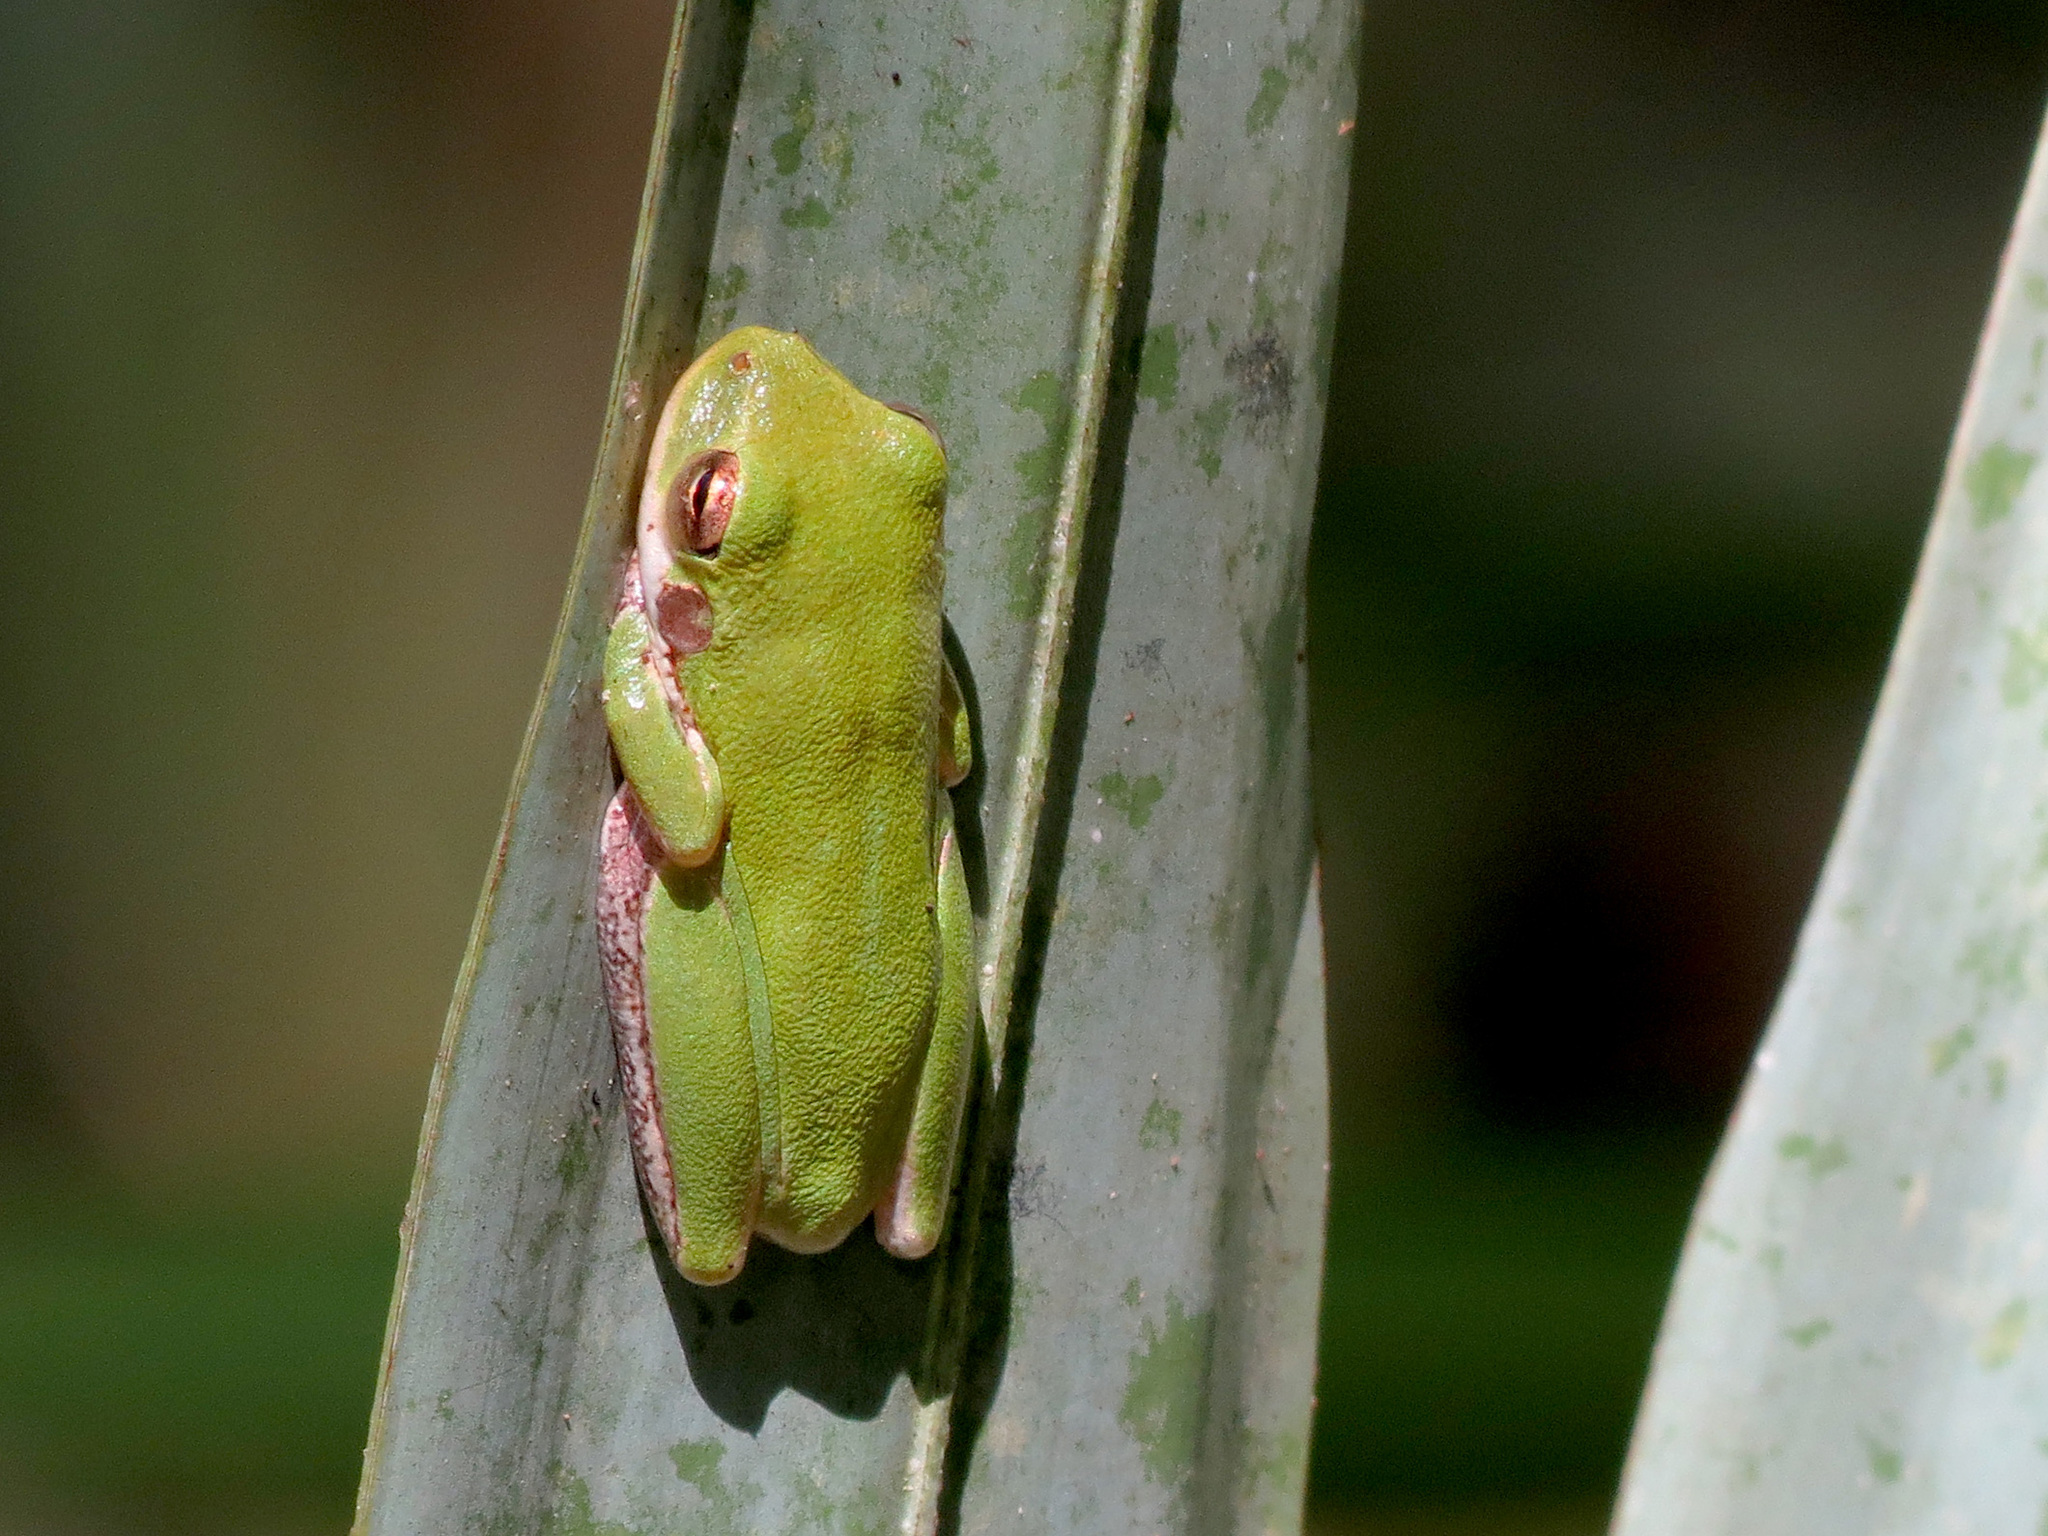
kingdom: Animalia
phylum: Chordata
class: Amphibia
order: Anura
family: Hylidae
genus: Dryophytes
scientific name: Dryophytes squirellus
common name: Squirrel treefrog
